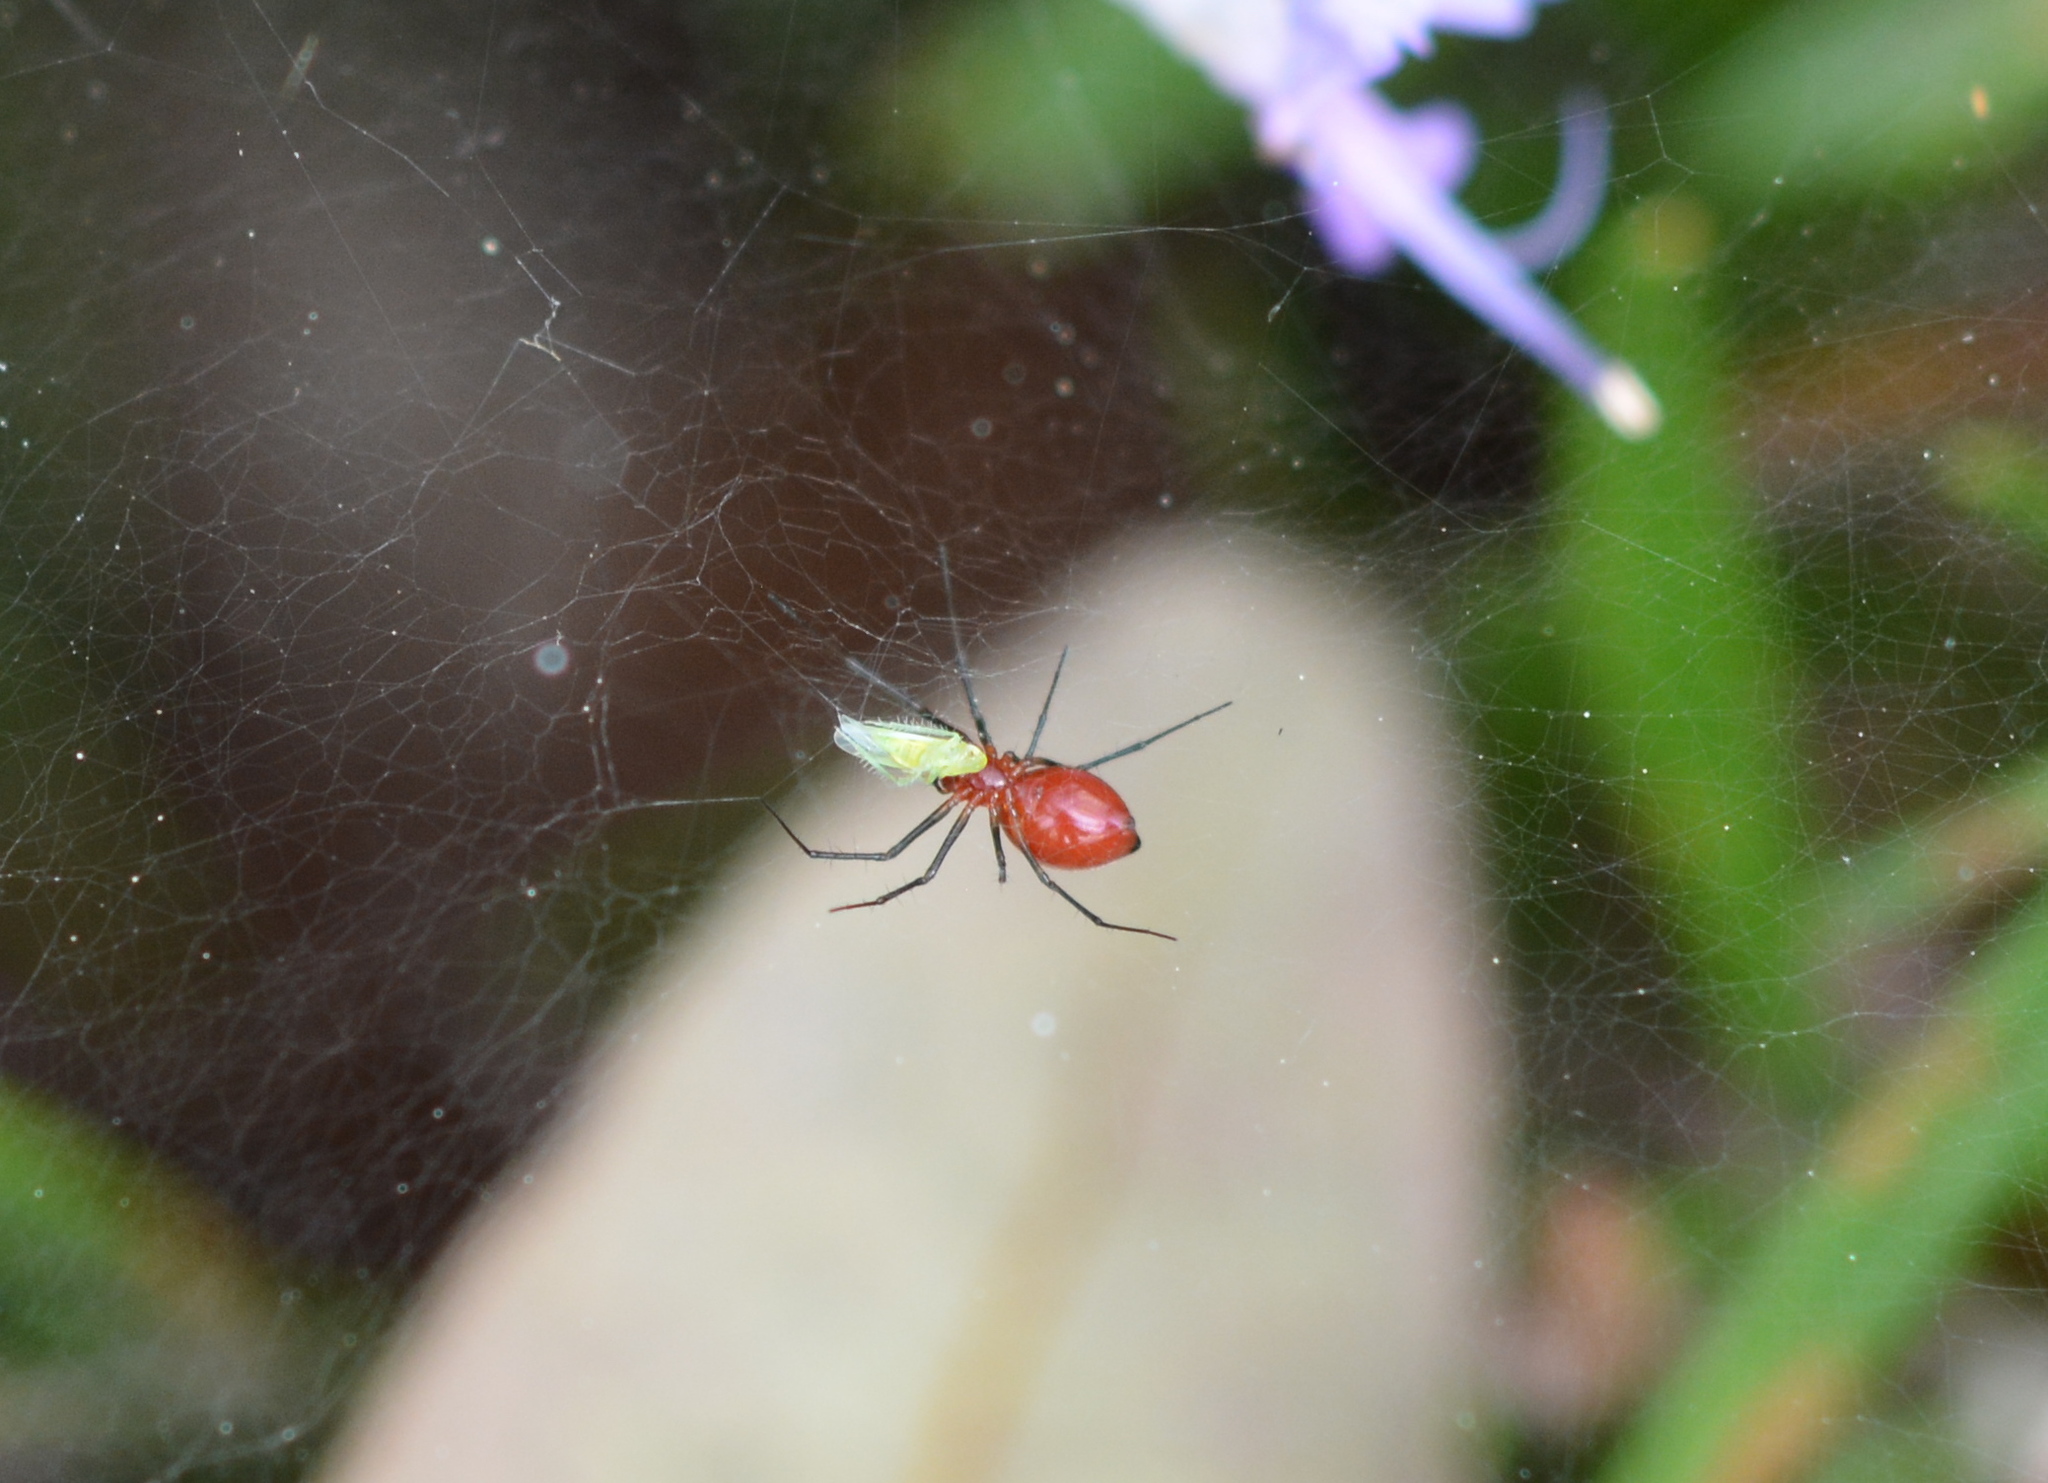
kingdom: Animalia
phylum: Arthropoda
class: Arachnida
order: Araneae
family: Linyphiidae
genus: Florinda
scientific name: Florinda coccinea
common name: Black-tailed red sheetweaver
